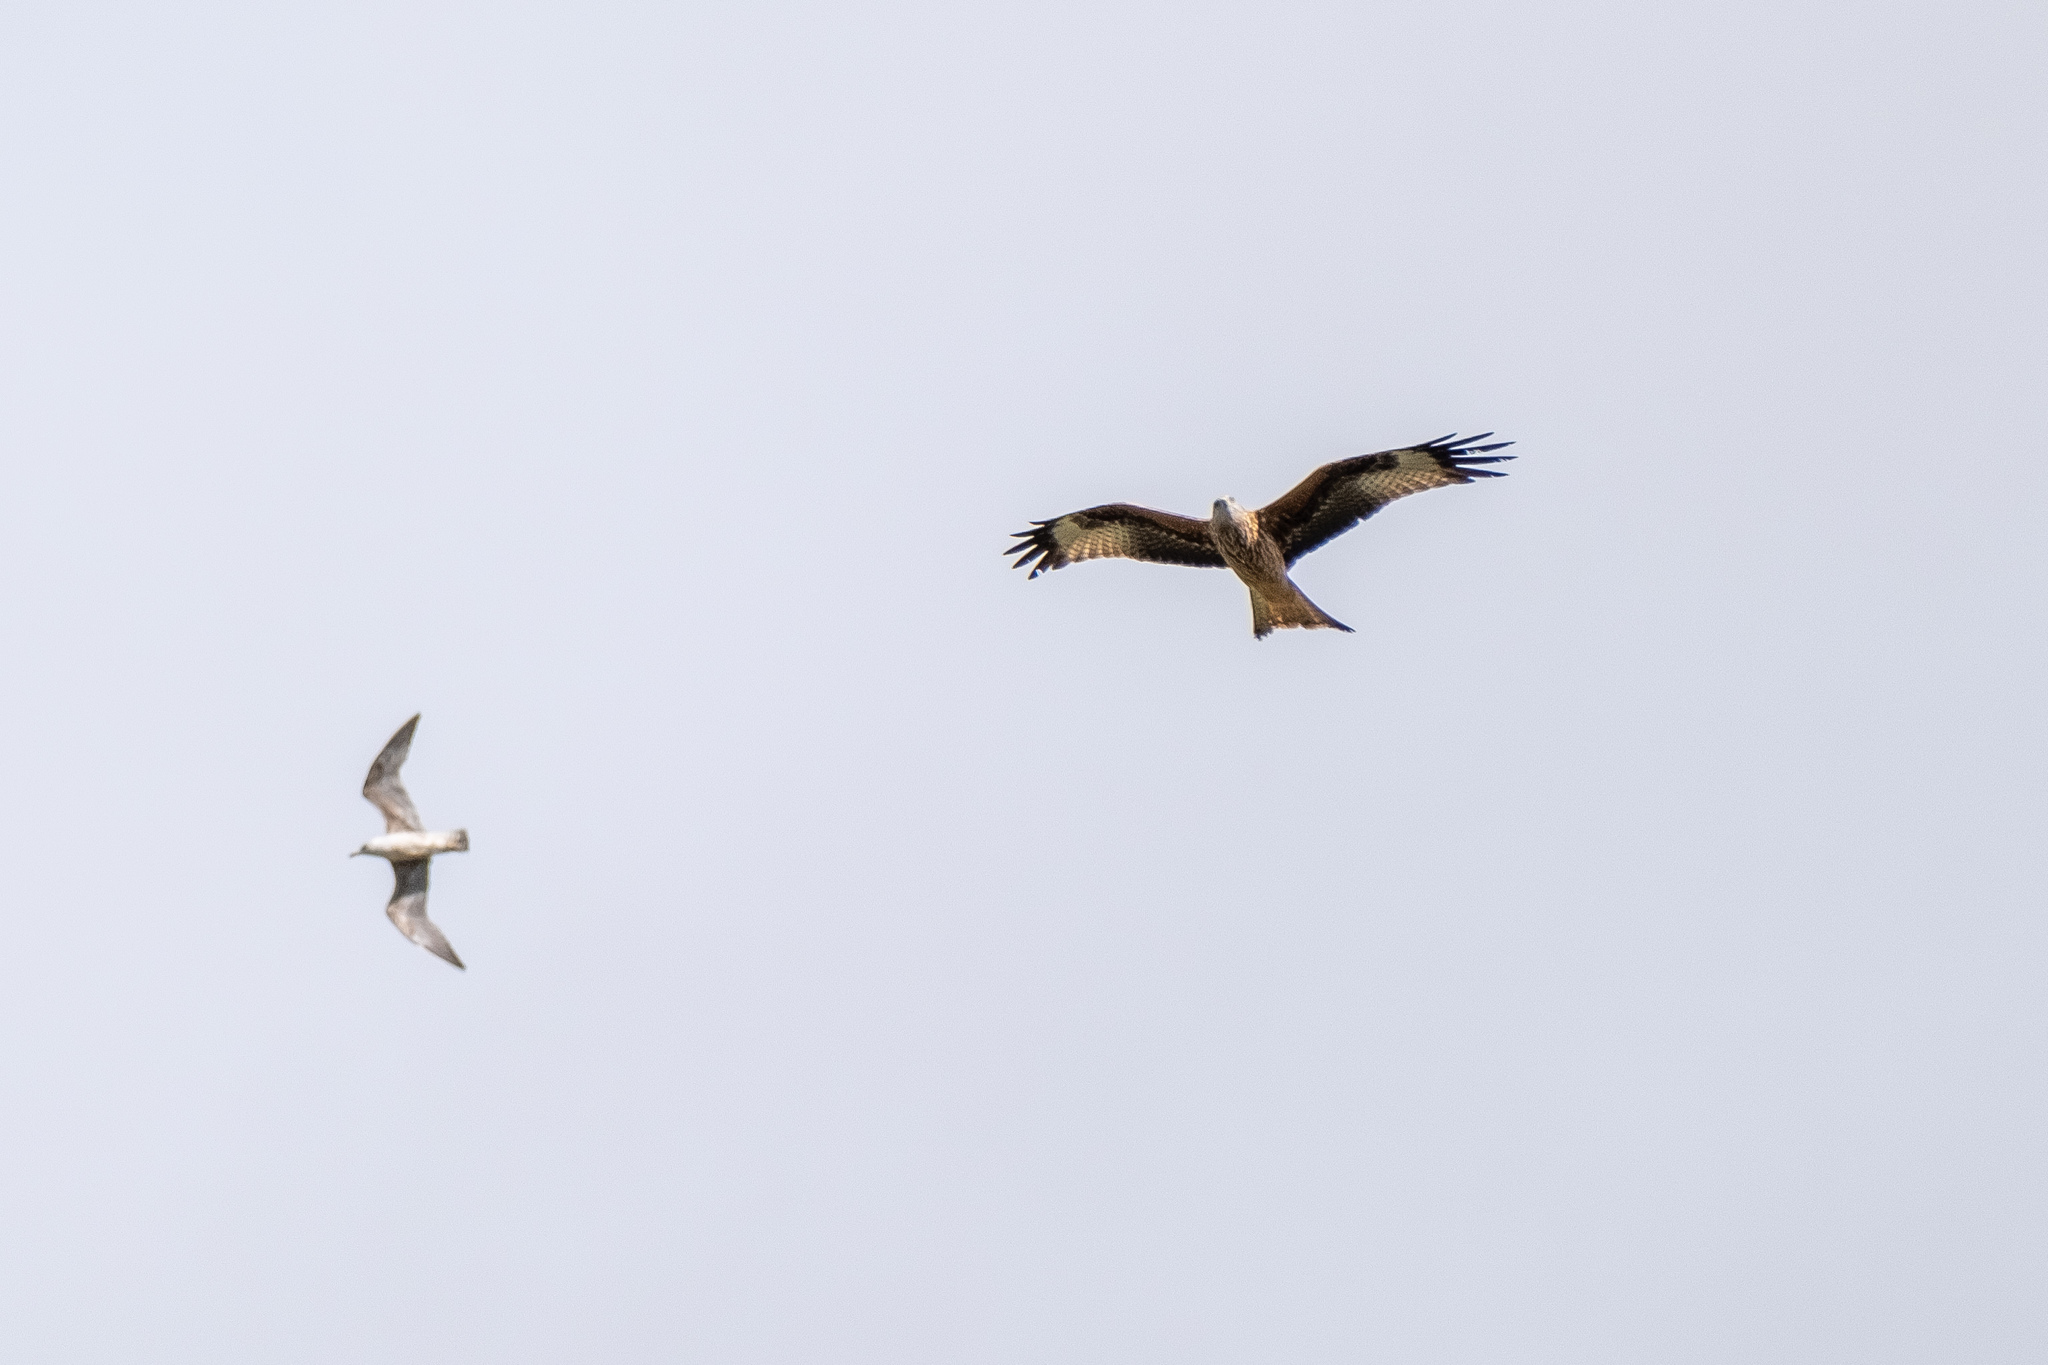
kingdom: Animalia
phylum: Chordata
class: Aves
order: Accipitriformes
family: Accipitridae
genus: Milvus
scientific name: Milvus milvus
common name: Red kite
